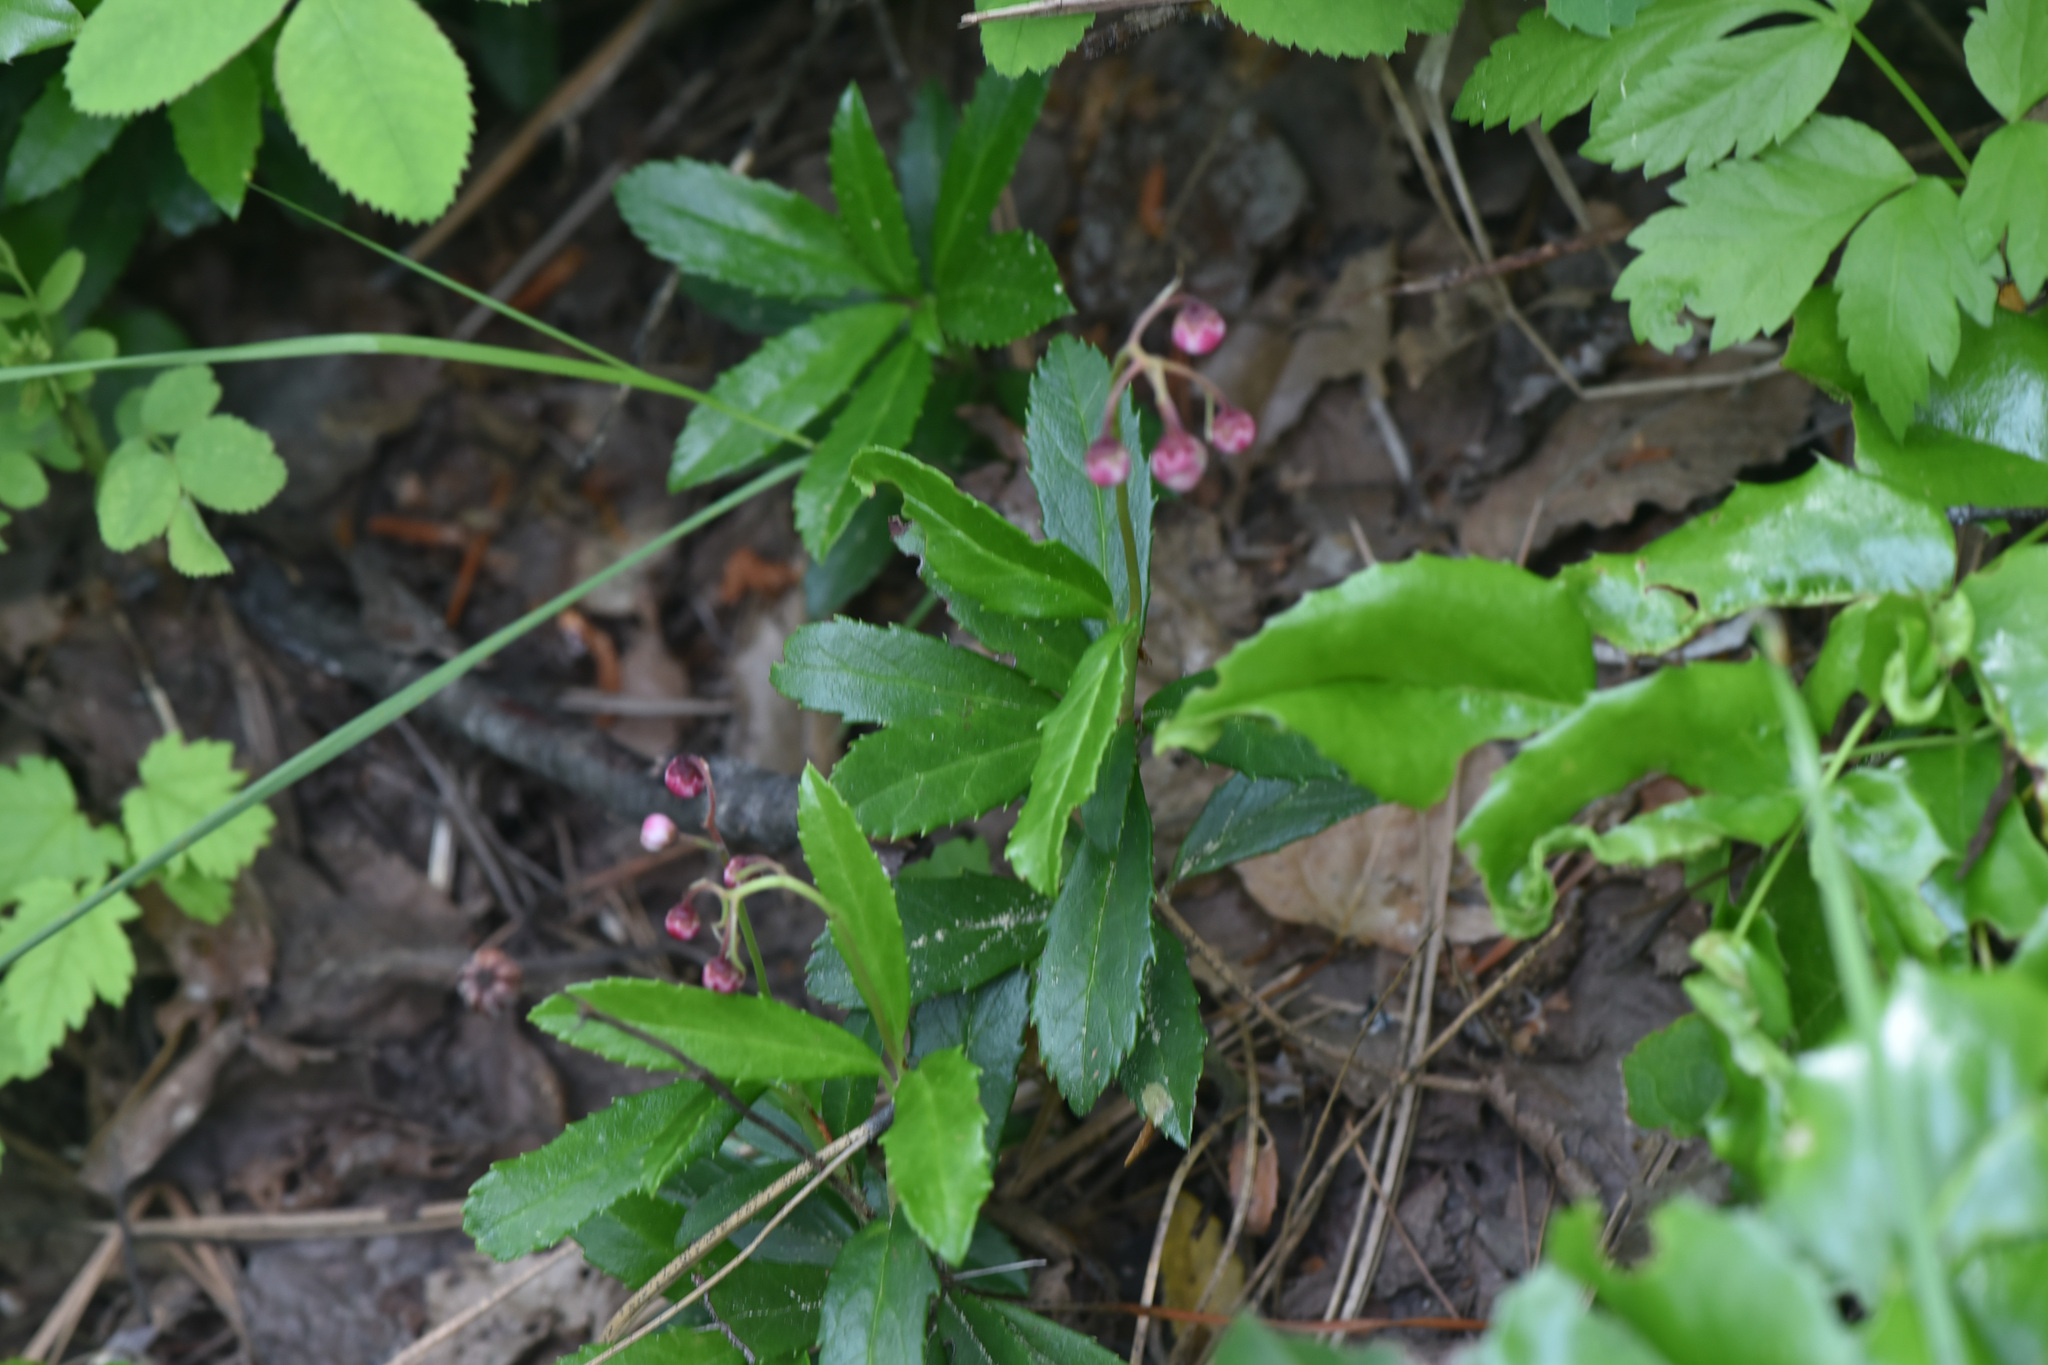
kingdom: Plantae
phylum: Tracheophyta
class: Magnoliopsida
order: Ericales
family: Ericaceae
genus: Chimaphila
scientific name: Chimaphila umbellata
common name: Pipsissewa
